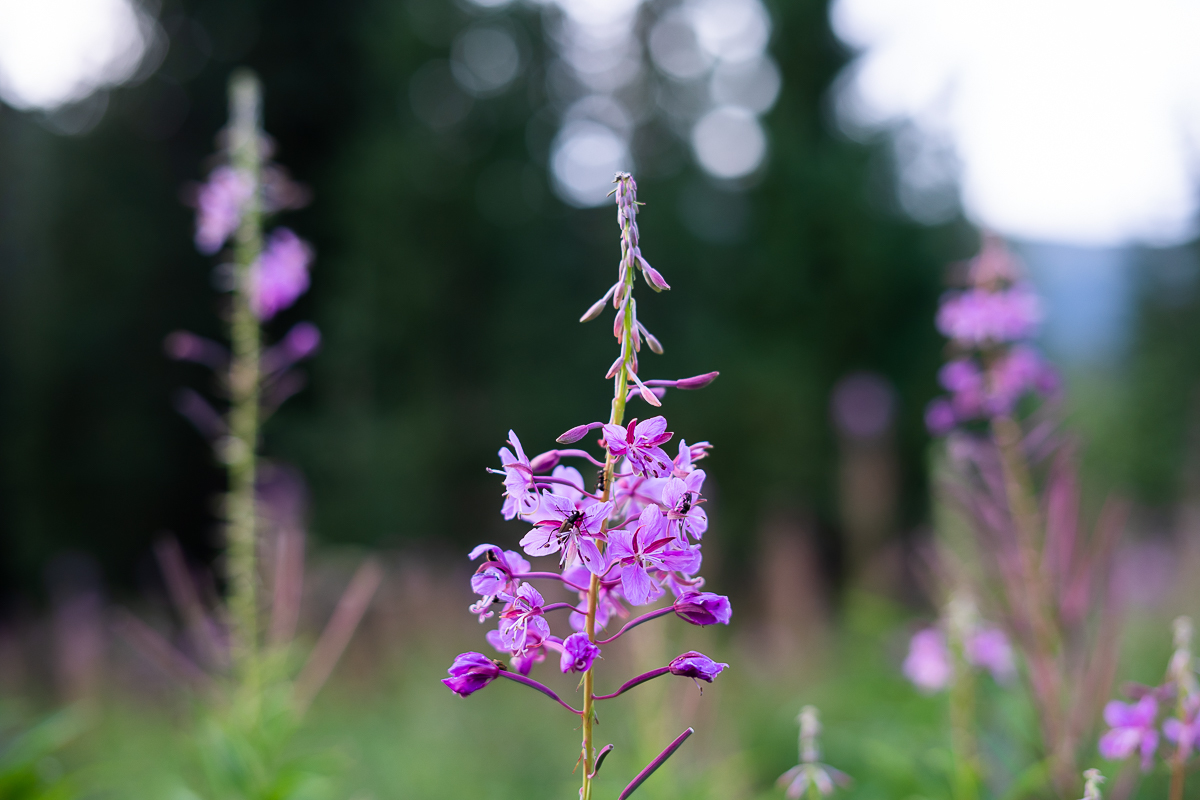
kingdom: Plantae
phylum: Tracheophyta
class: Magnoliopsida
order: Myrtales
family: Onagraceae
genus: Chamaenerion
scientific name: Chamaenerion angustifolium
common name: Fireweed
